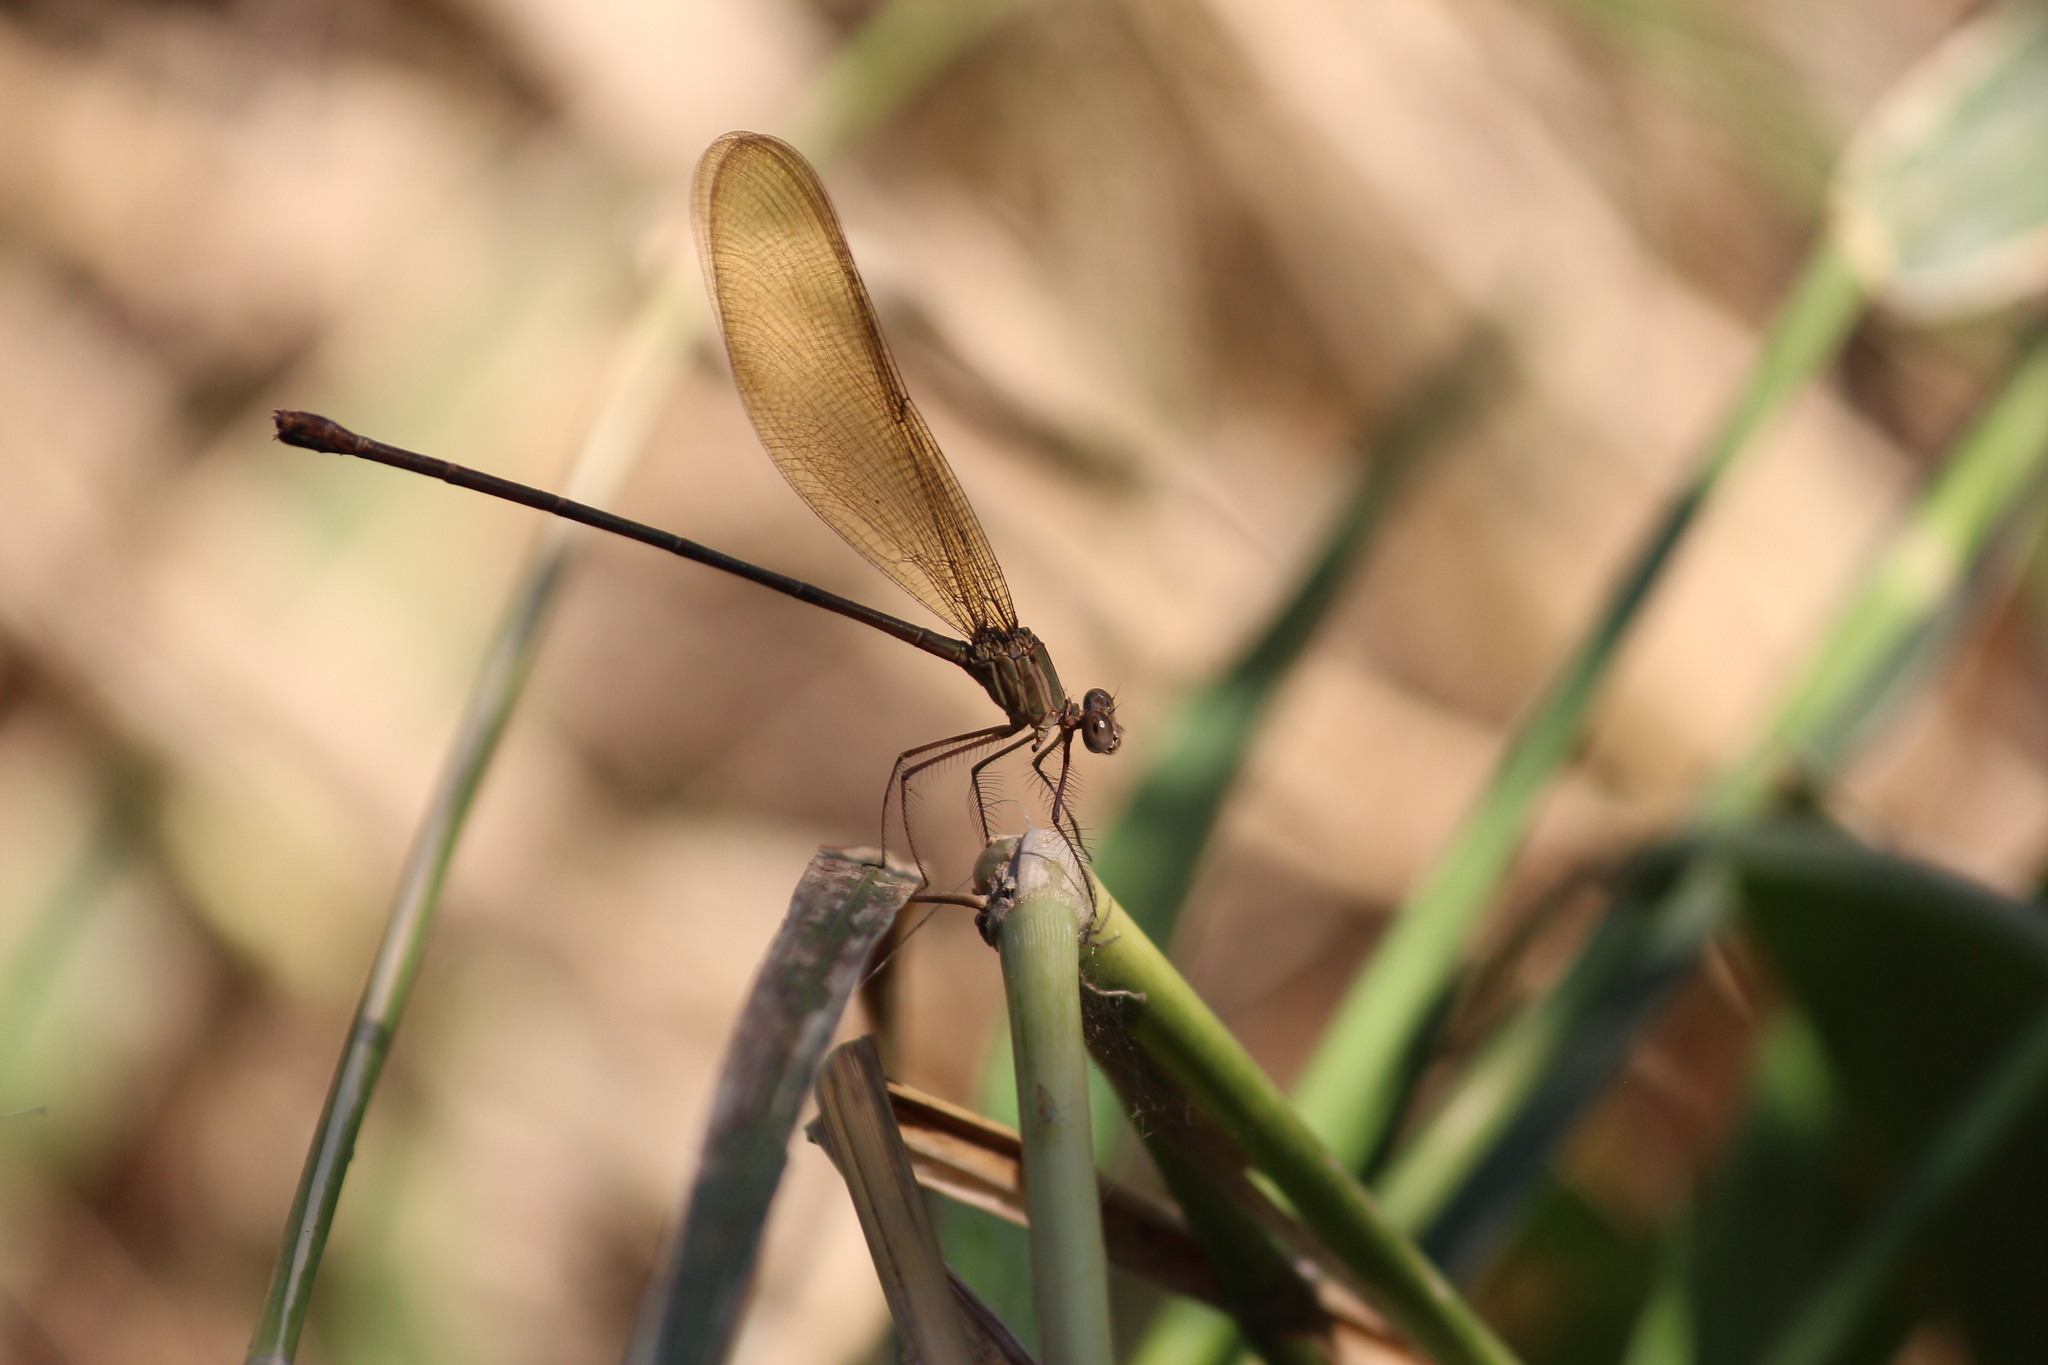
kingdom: Animalia
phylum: Arthropoda
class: Insecta
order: Odonata
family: Calopterygidae
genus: Phaon
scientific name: Phaon iridipennis
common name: Glistening demoiselle
